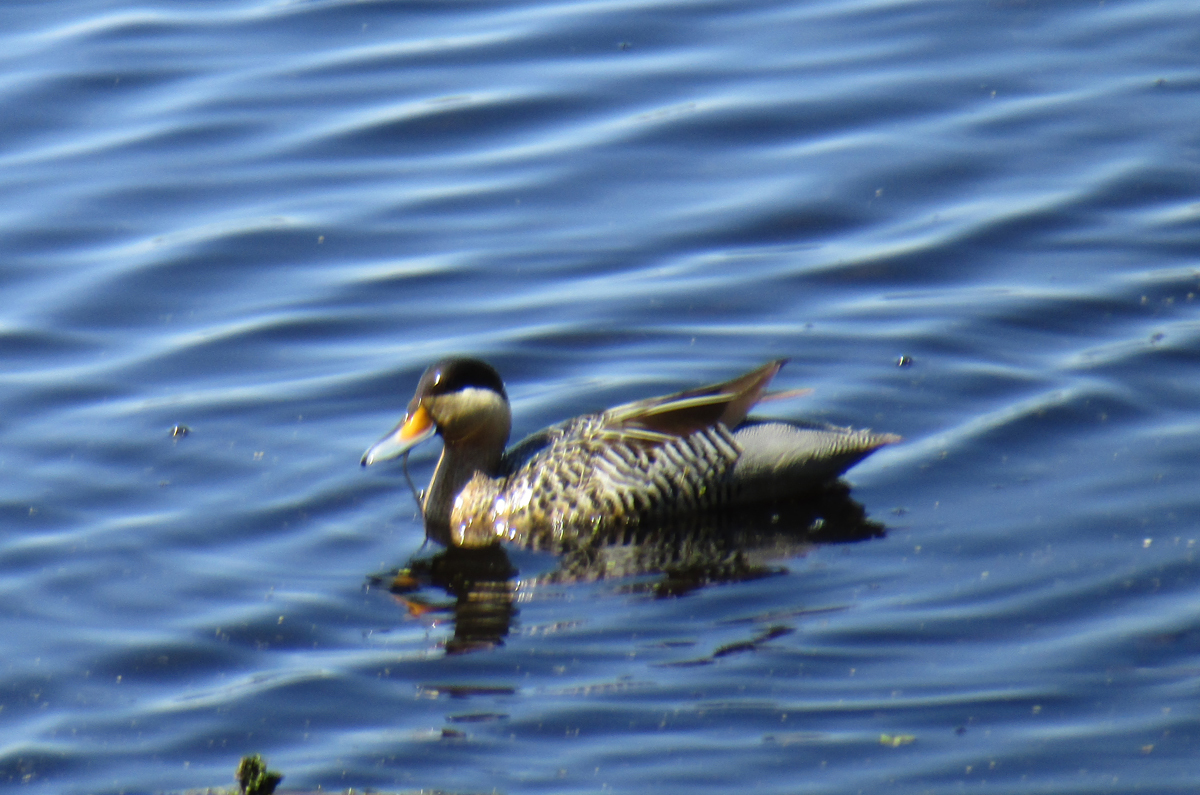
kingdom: Animalia
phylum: Chordata
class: Aves
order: Anseriformes
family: Anatidae
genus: Spatula
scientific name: Spatula versicolor
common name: Silver teal
